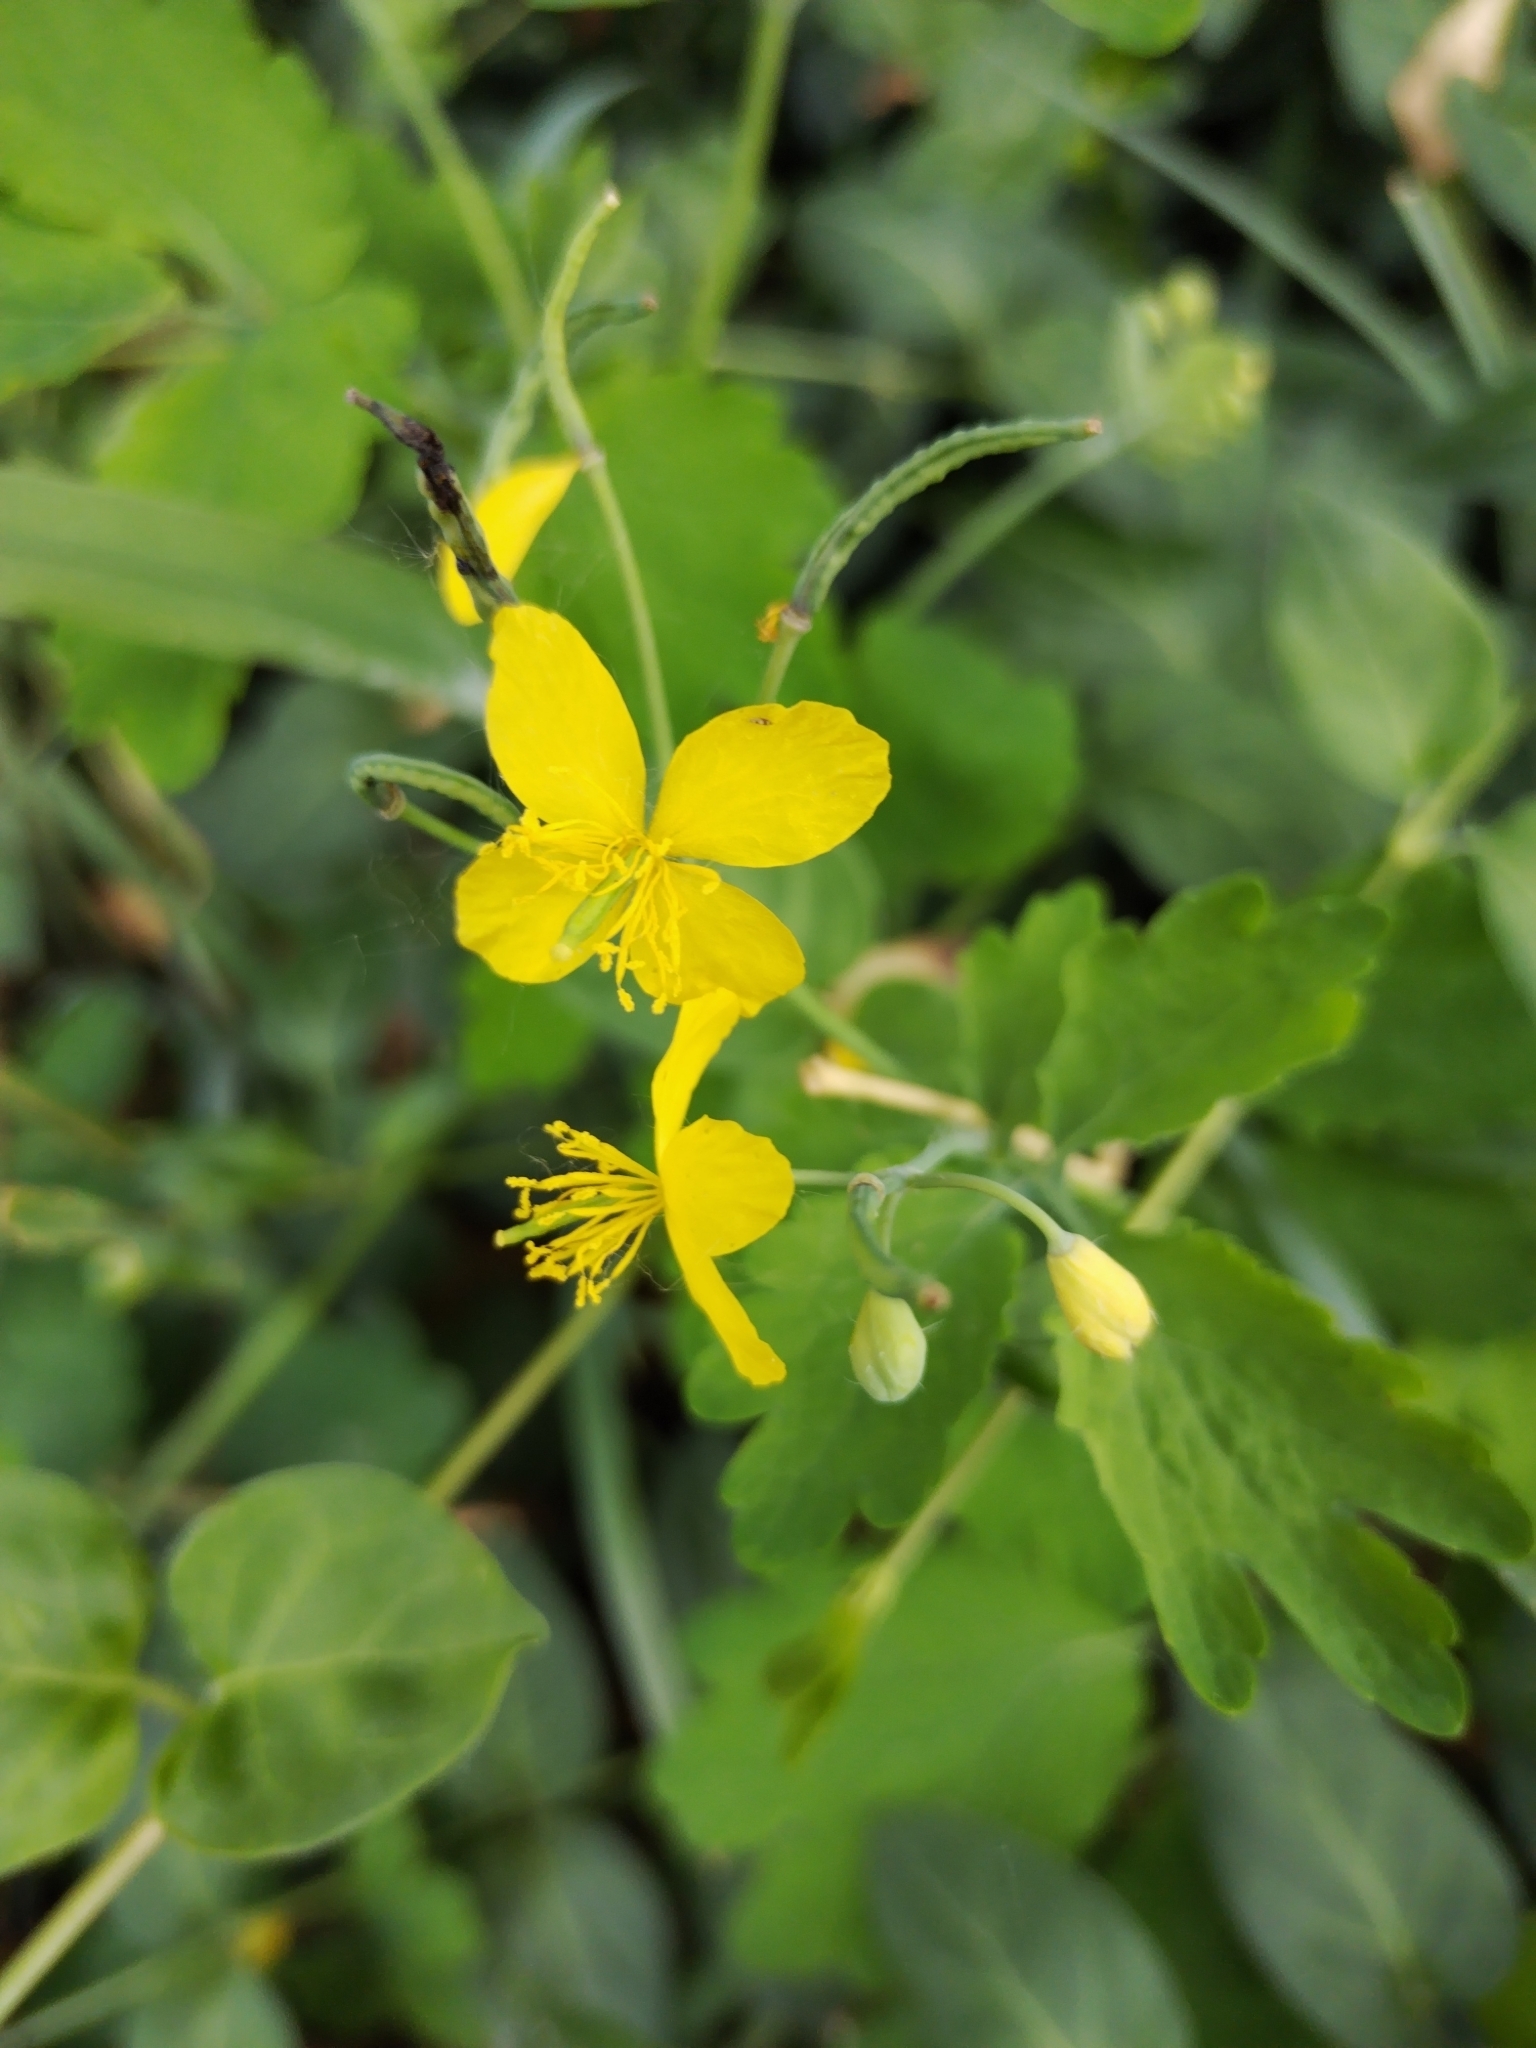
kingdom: Plantae
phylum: Tracheophyta
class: Magnoliopsida
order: Ranunculales
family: Papaveraceae
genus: Chelidonium
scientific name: Chelidonium majus
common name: Greater celandine
